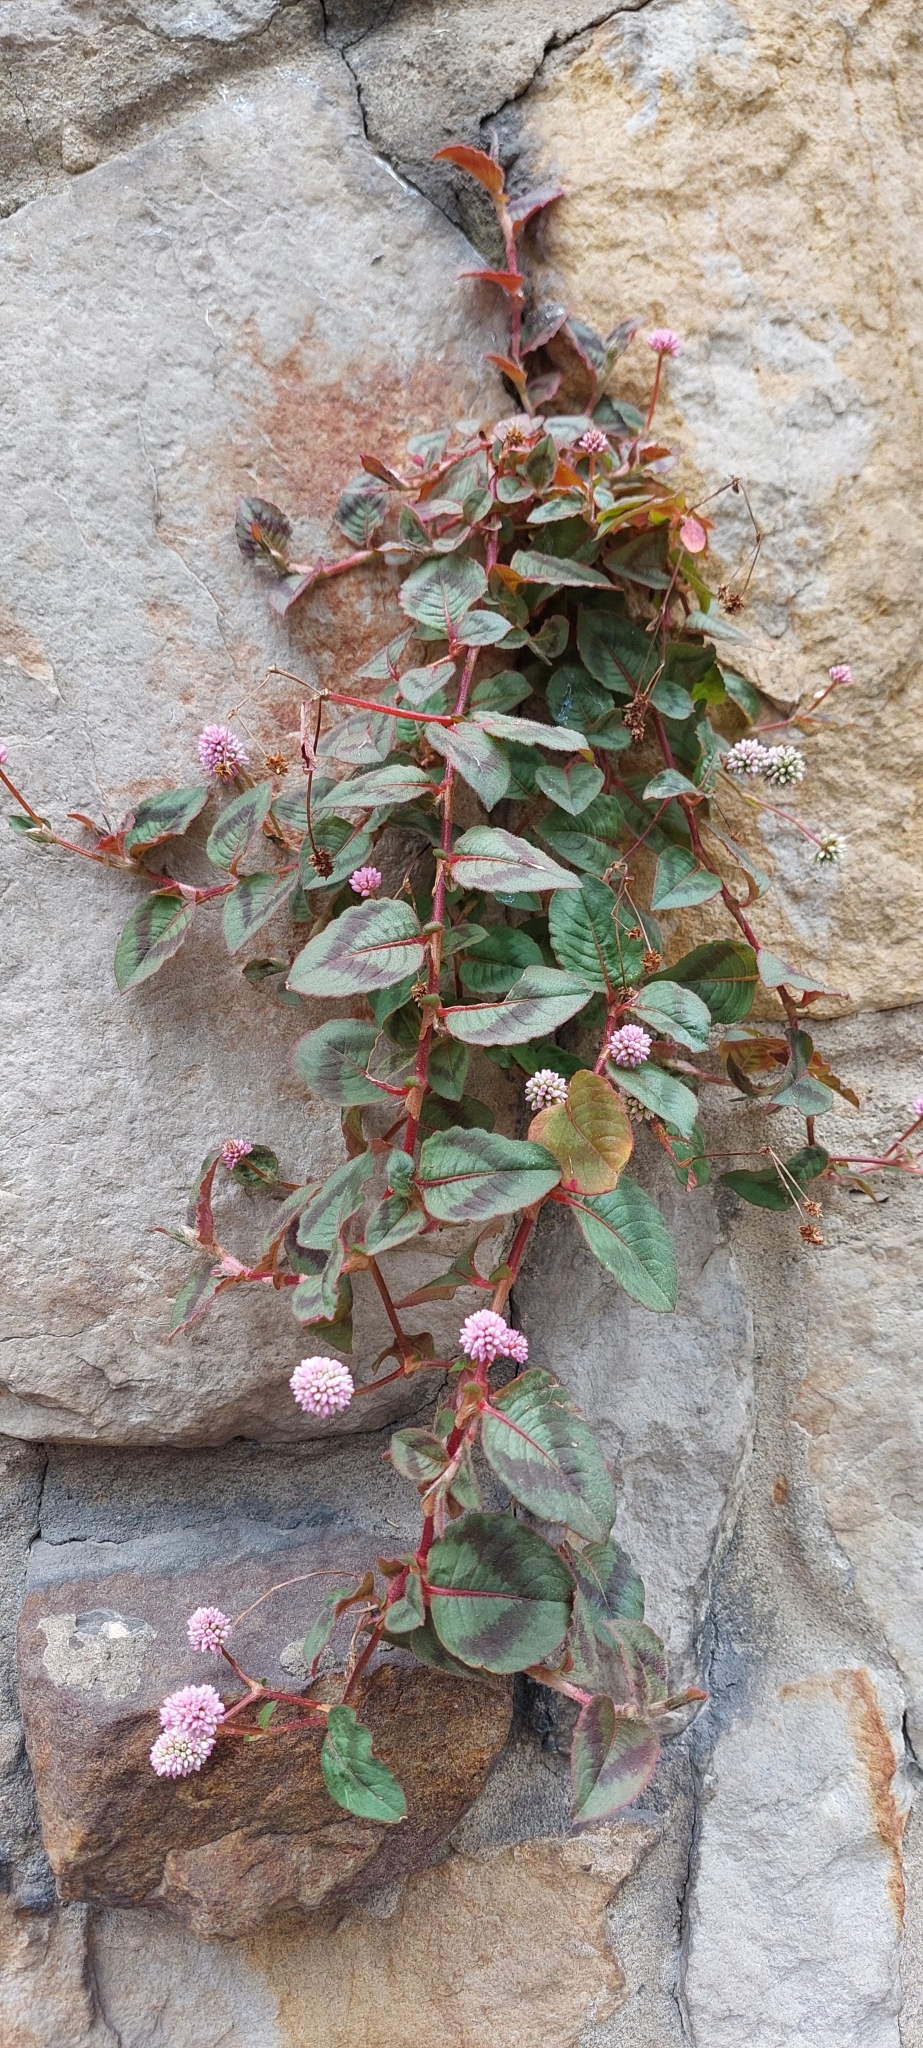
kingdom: Plantae
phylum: Tracheophyta
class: Magnoliopsida
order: Caryophyllales
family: Polygonaceae
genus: Persicaria
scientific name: Persicaria capitata
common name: Pinkhead smartweed
